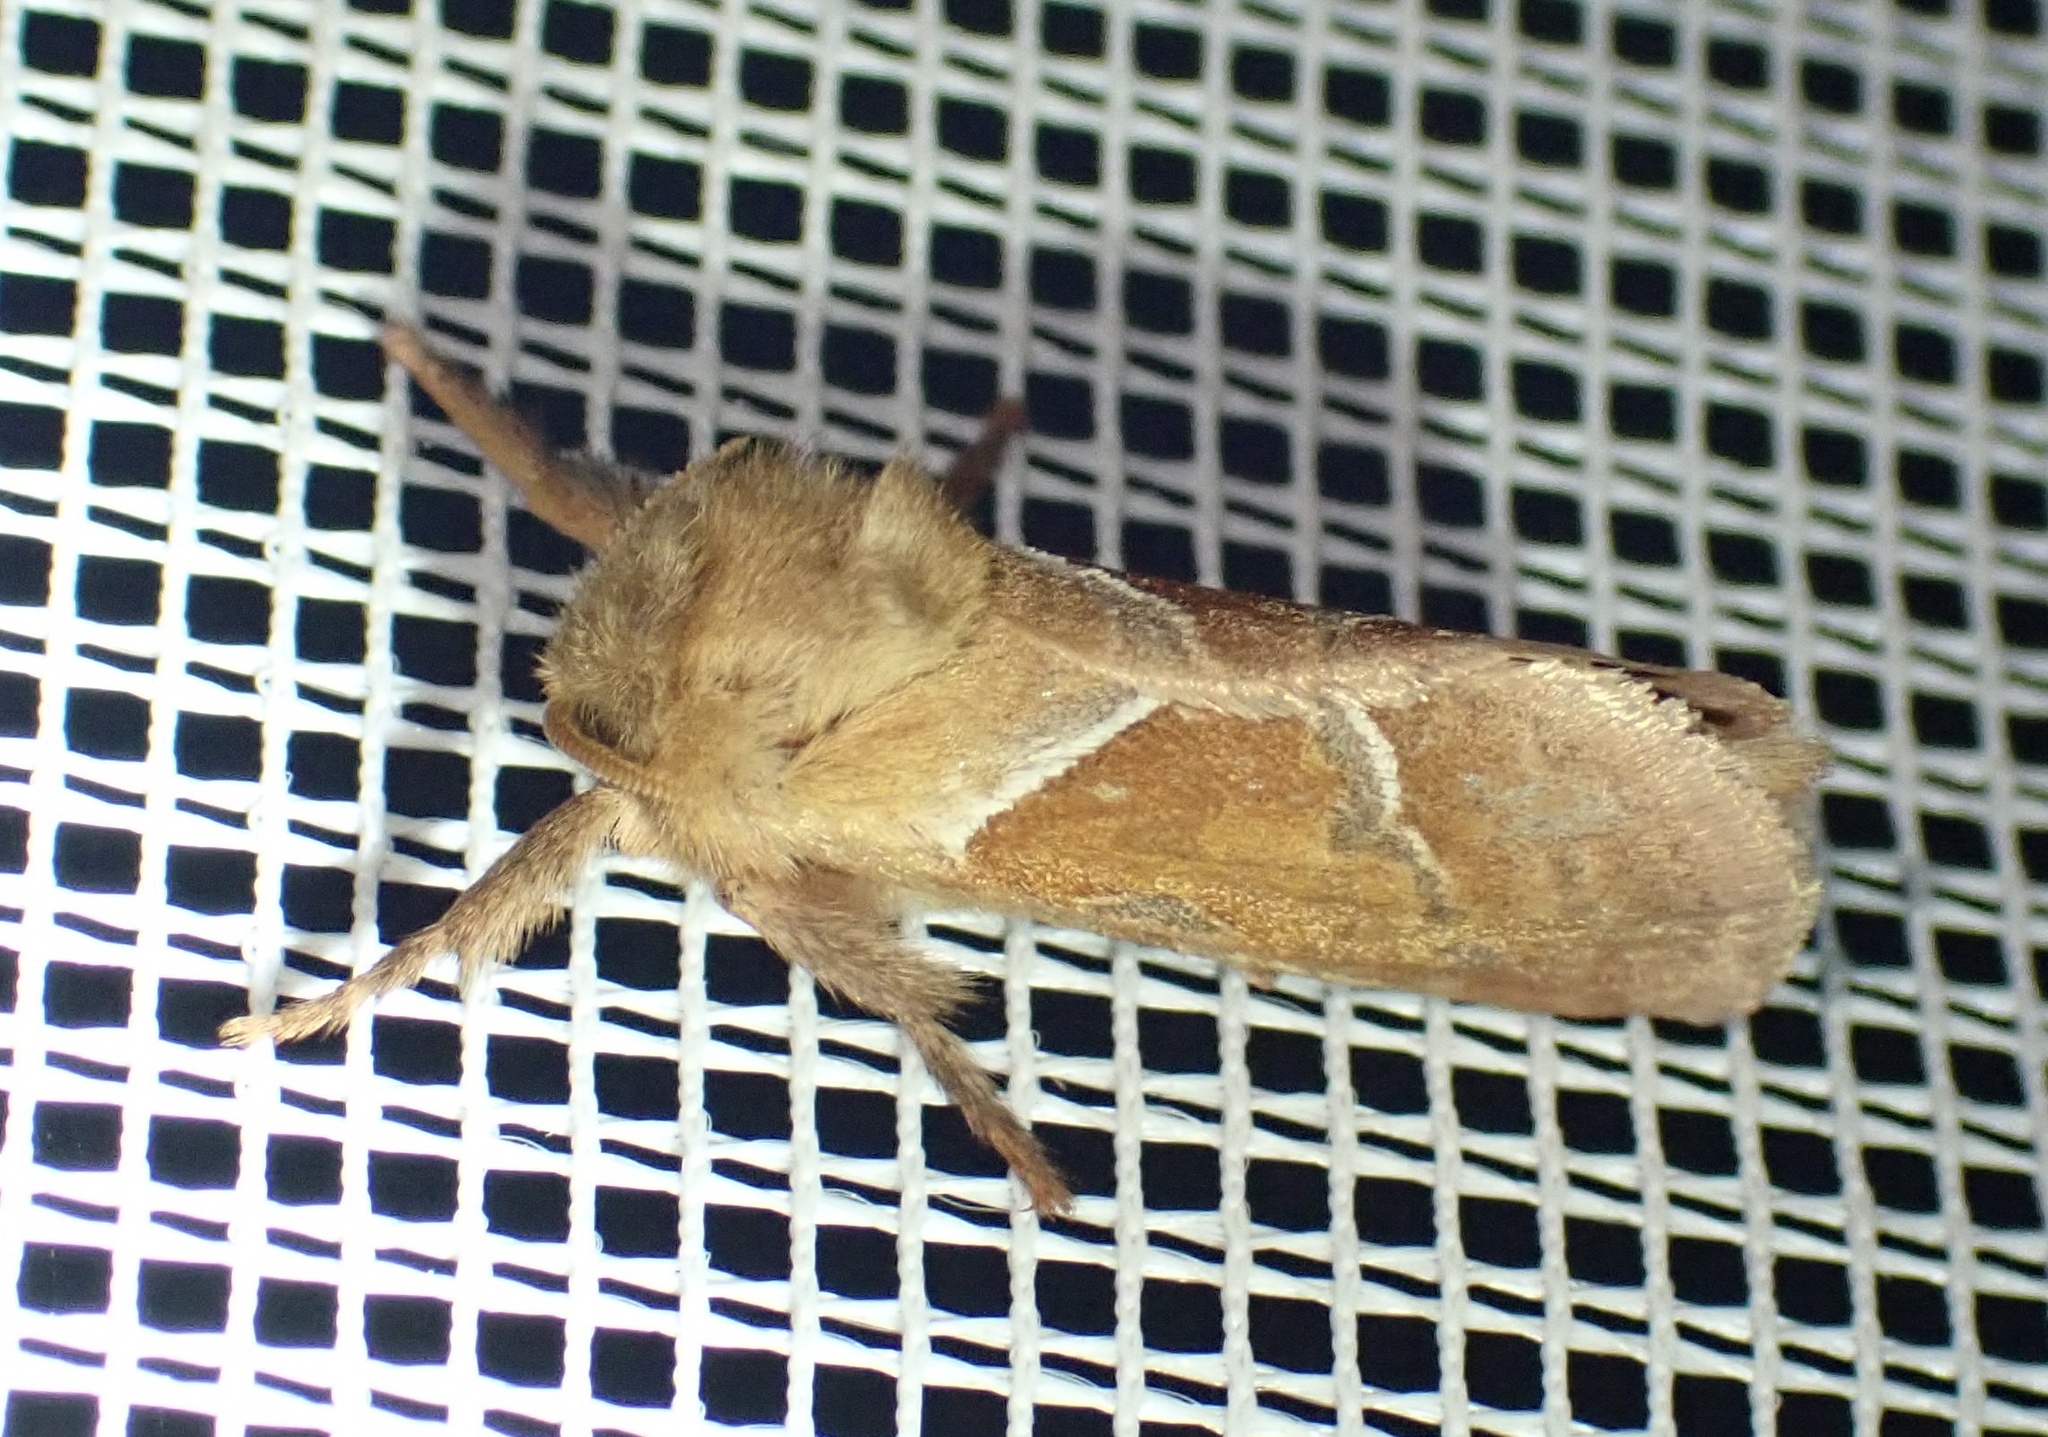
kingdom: Animalia
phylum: Arthropoda
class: Insecta
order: Lepidoptera
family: Hepialidae
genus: Triodia
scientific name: Triodia sylvina
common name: Orange swift
